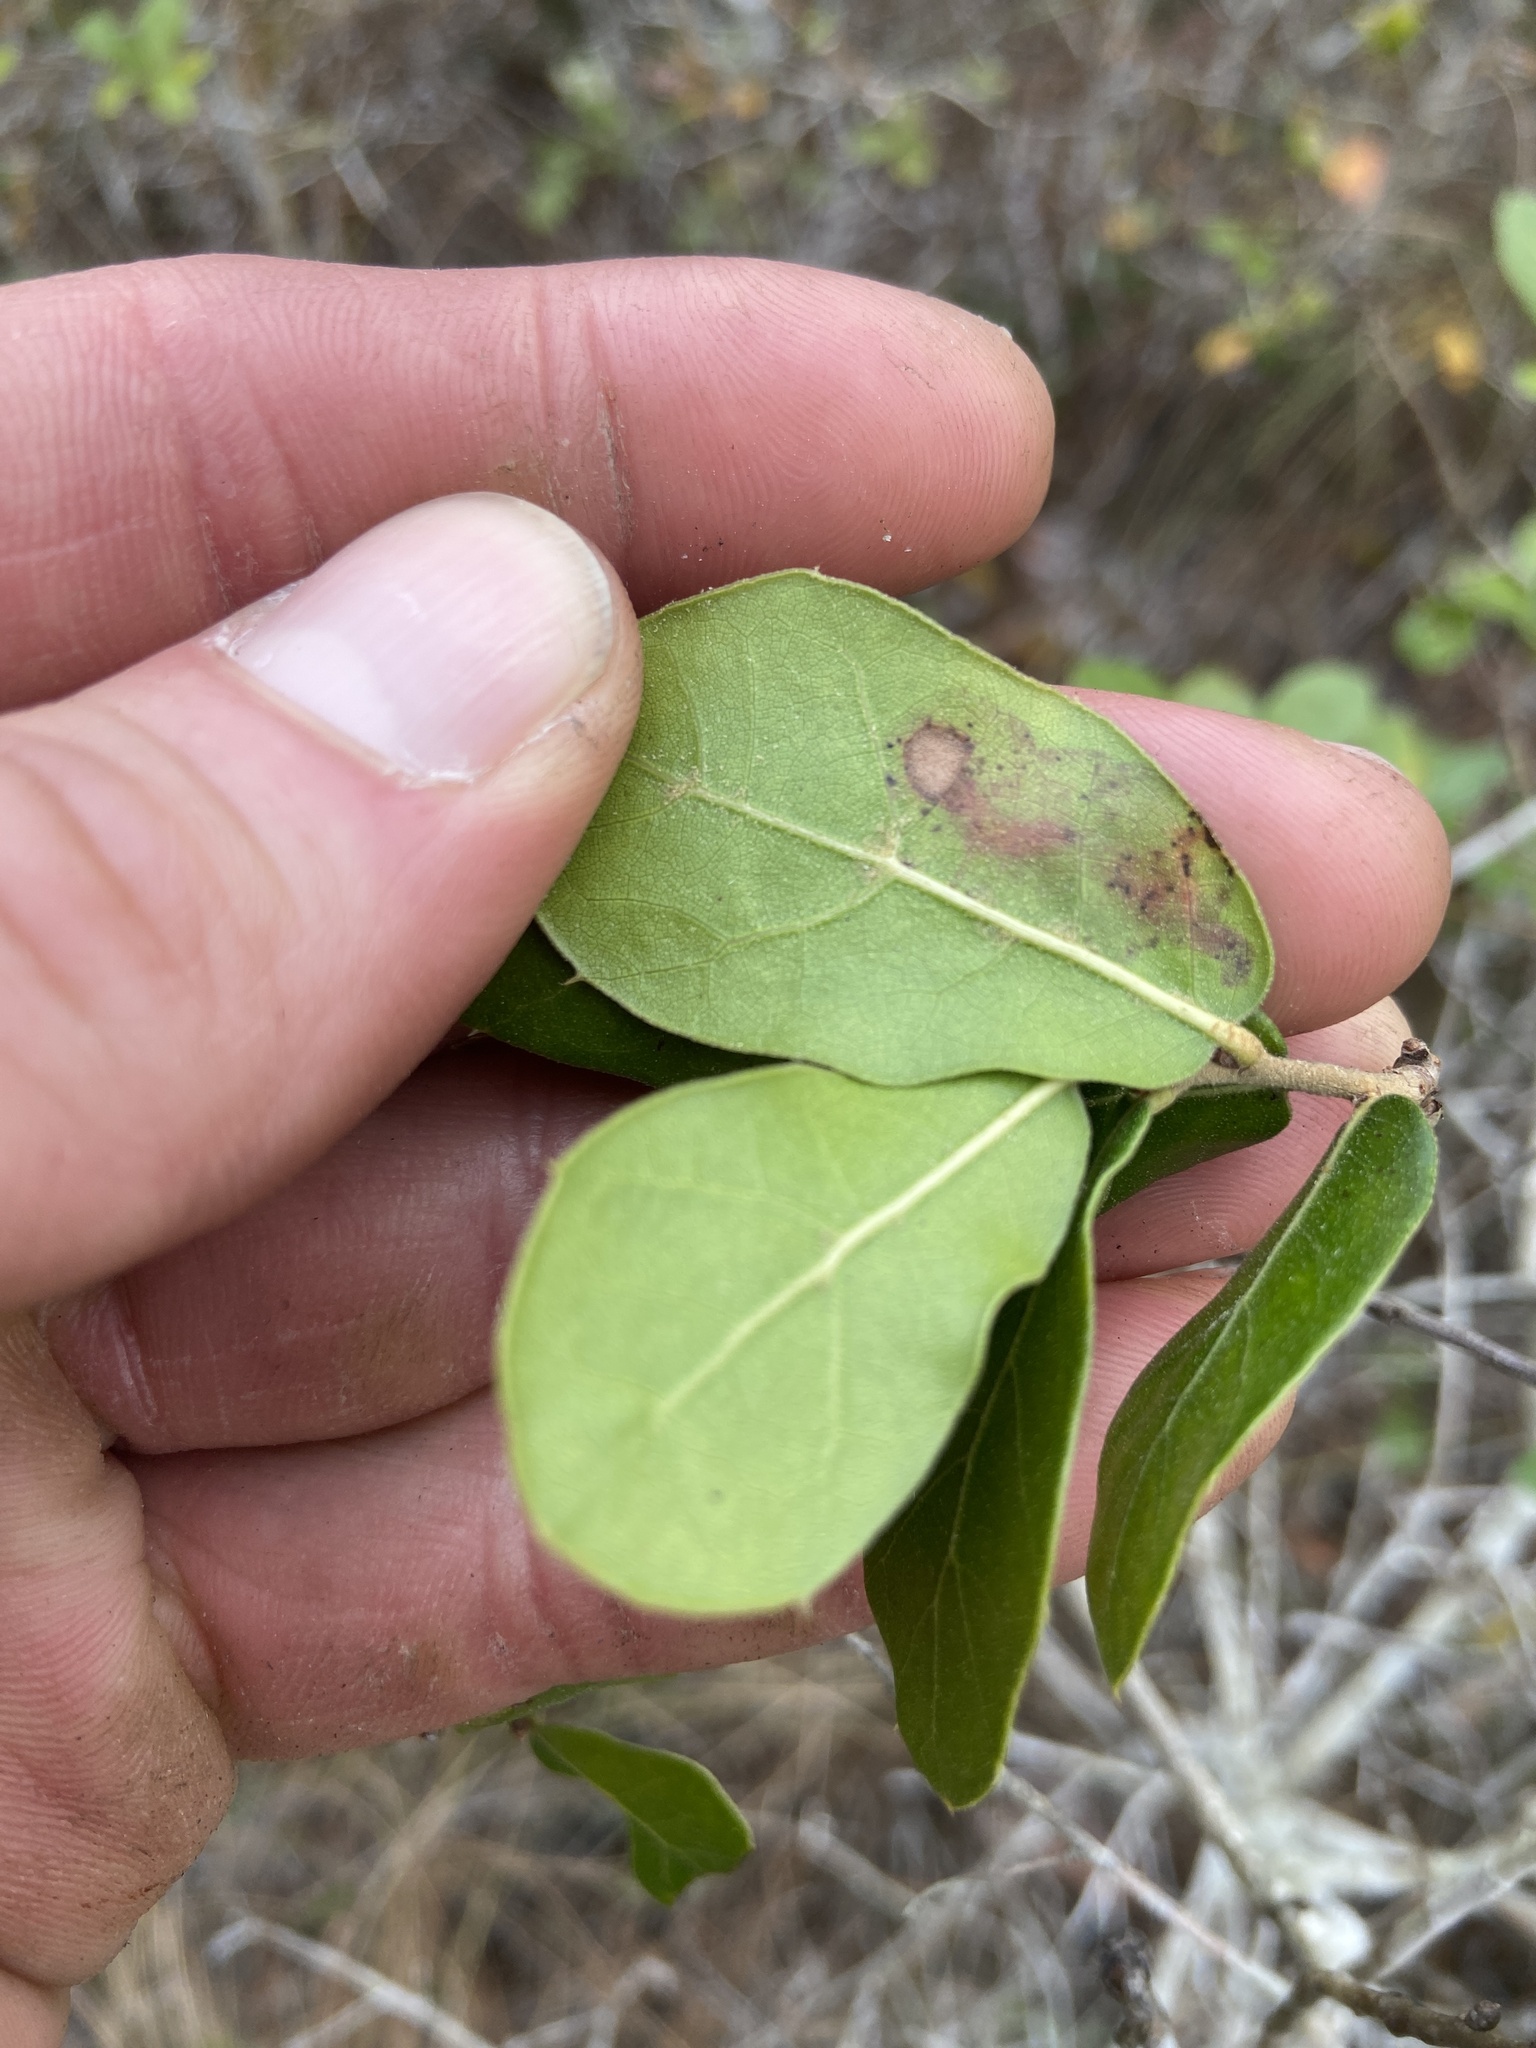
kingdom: Plantae
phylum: Tracheophyta
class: Magnoliopsida
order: Fagales
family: Fagaceae
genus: Quercus
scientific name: Quercus myrtifolia
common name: Myrtle oak
